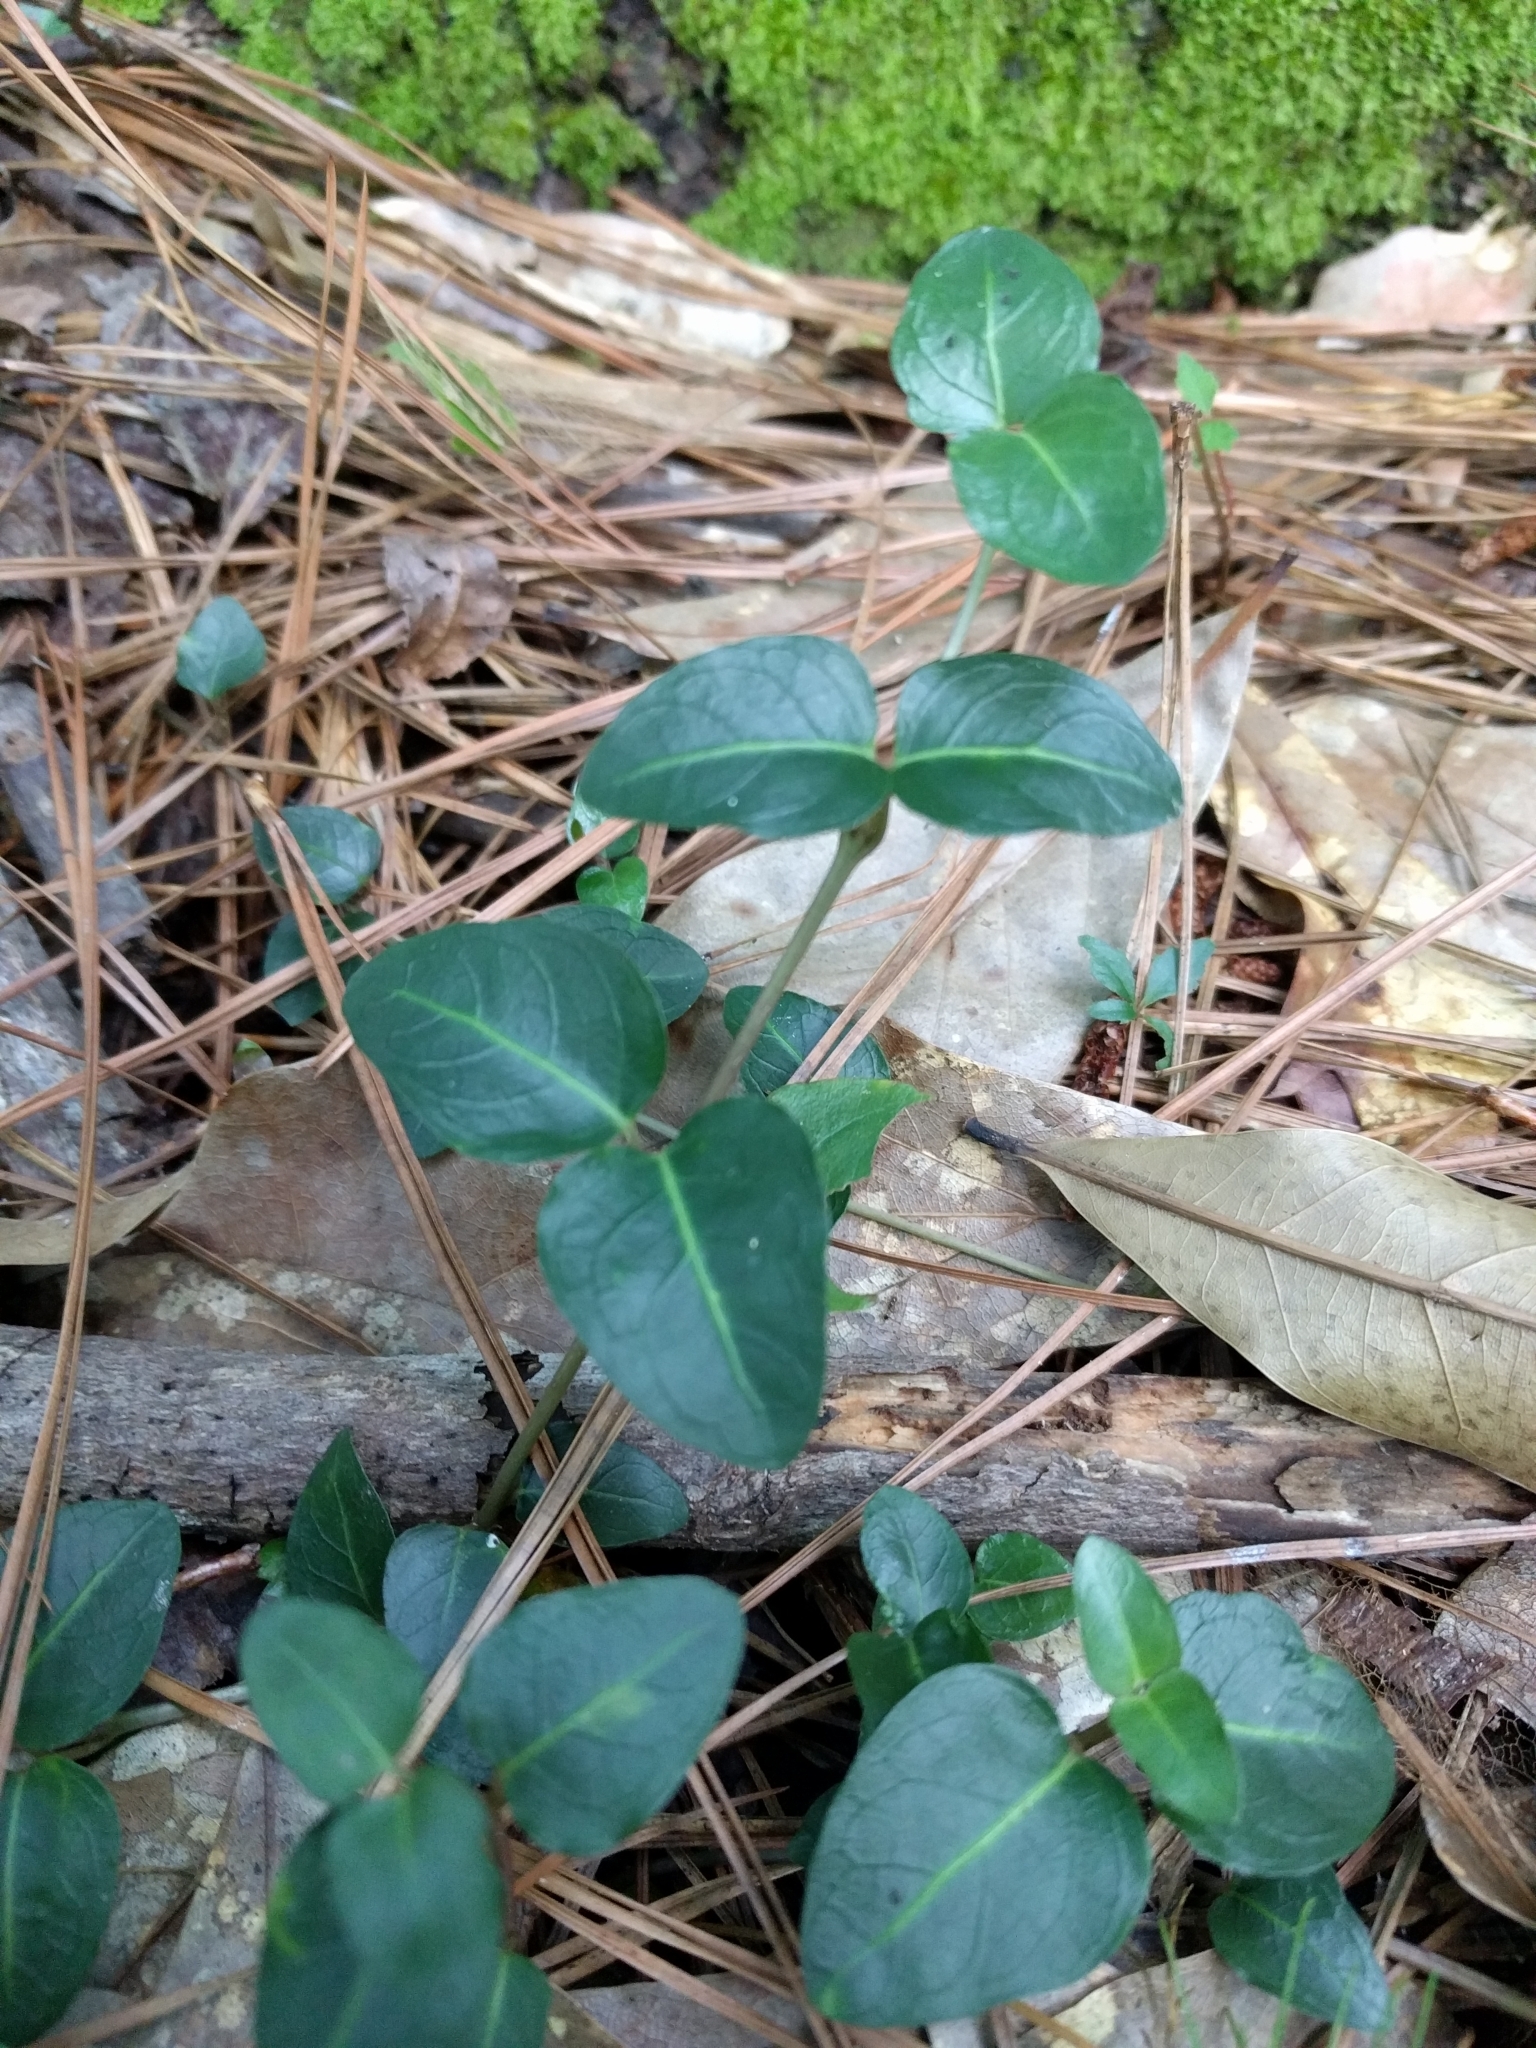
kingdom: Plantae
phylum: Tracheophyta
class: Magnoliopsida
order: Gentianales
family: Rubiaceae
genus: Mitchella
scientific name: Mitchella repens
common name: Partridge-berry
